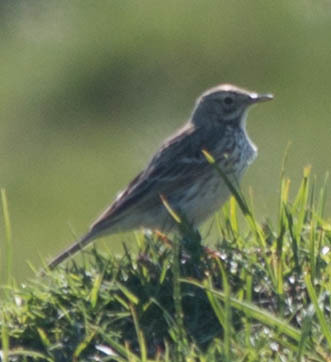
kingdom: Animalia
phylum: Chordata
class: Aves
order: Passeriformes
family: Motacillidae
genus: Anthus
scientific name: Anthus pratensis
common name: Meadow pipit
